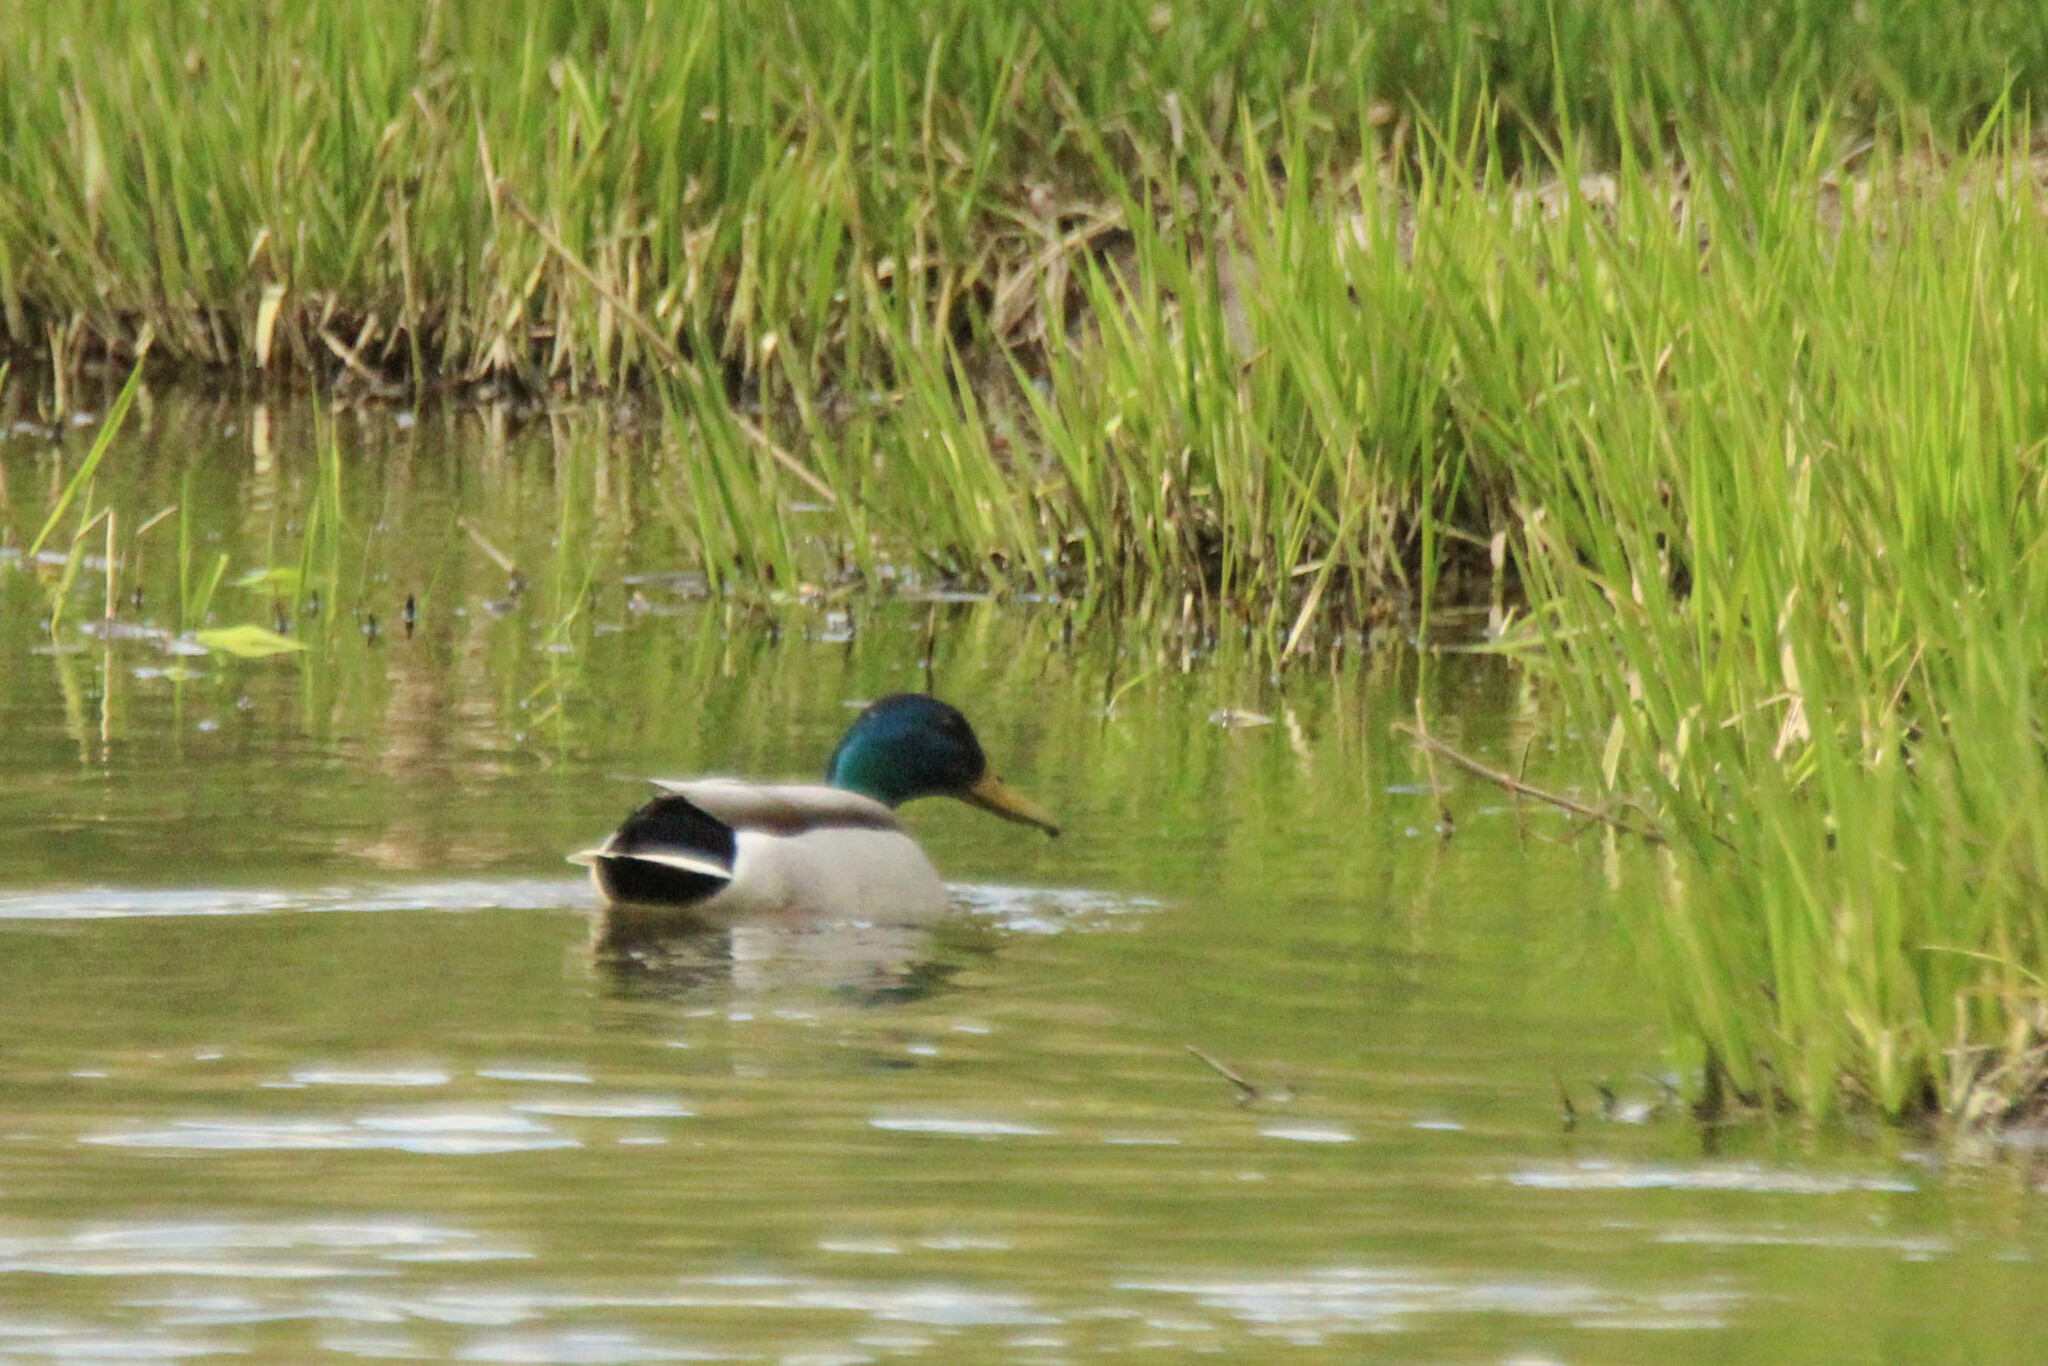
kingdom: Animalia
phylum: Chordata
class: Aves
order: Anseriformes
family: Anatidae
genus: Anas
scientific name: Anas platyrhynchos
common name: Mallard
